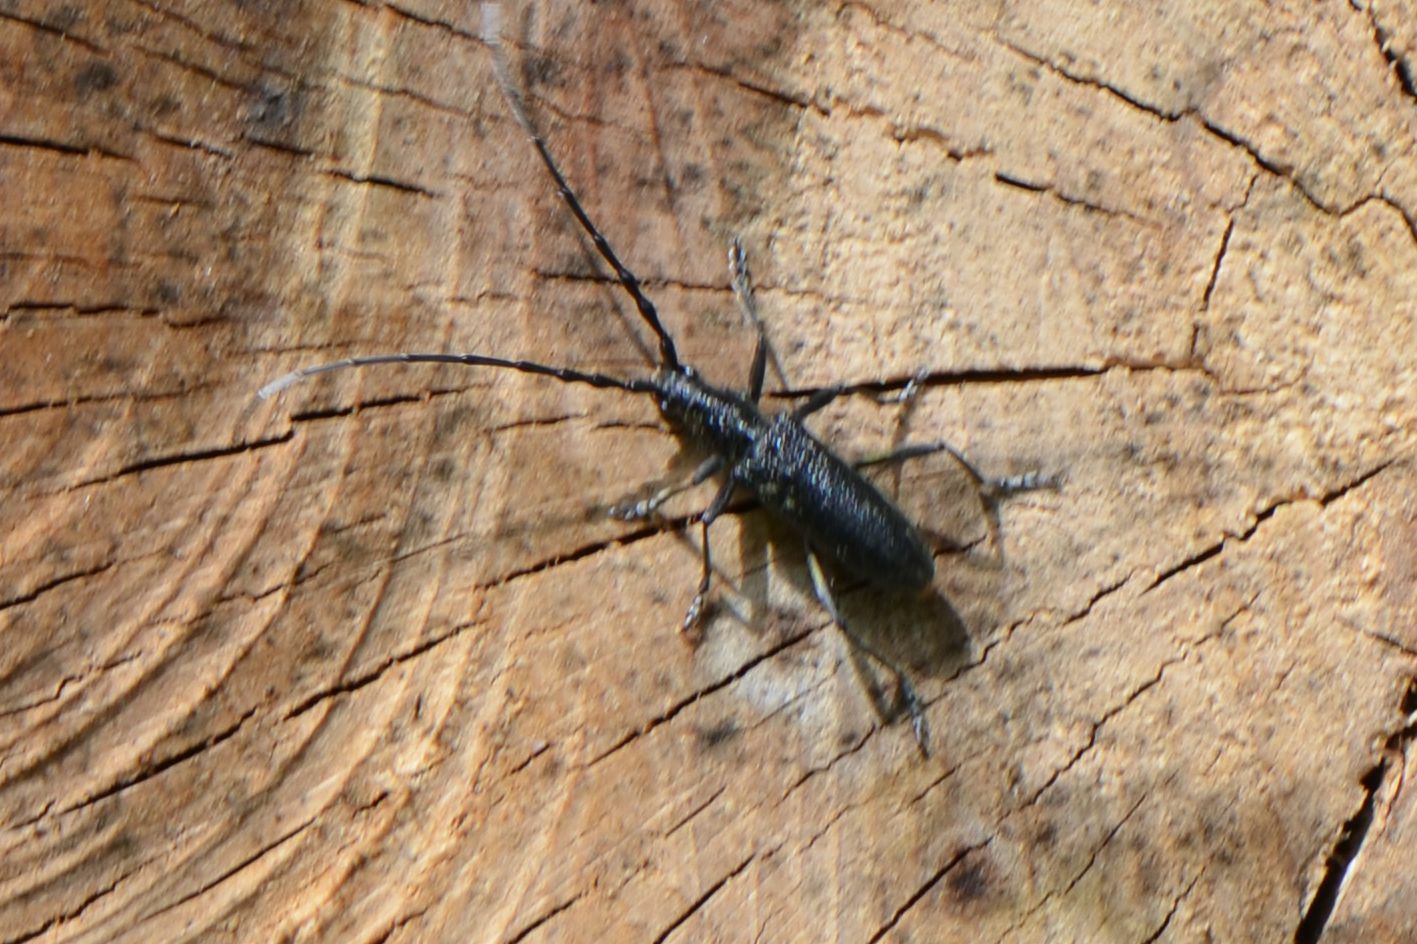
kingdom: Animalia
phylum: Arthropoda
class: Insecta
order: Coleoptera
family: Cerambycidae
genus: Cerambyx
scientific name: Cerambyx scopolii
